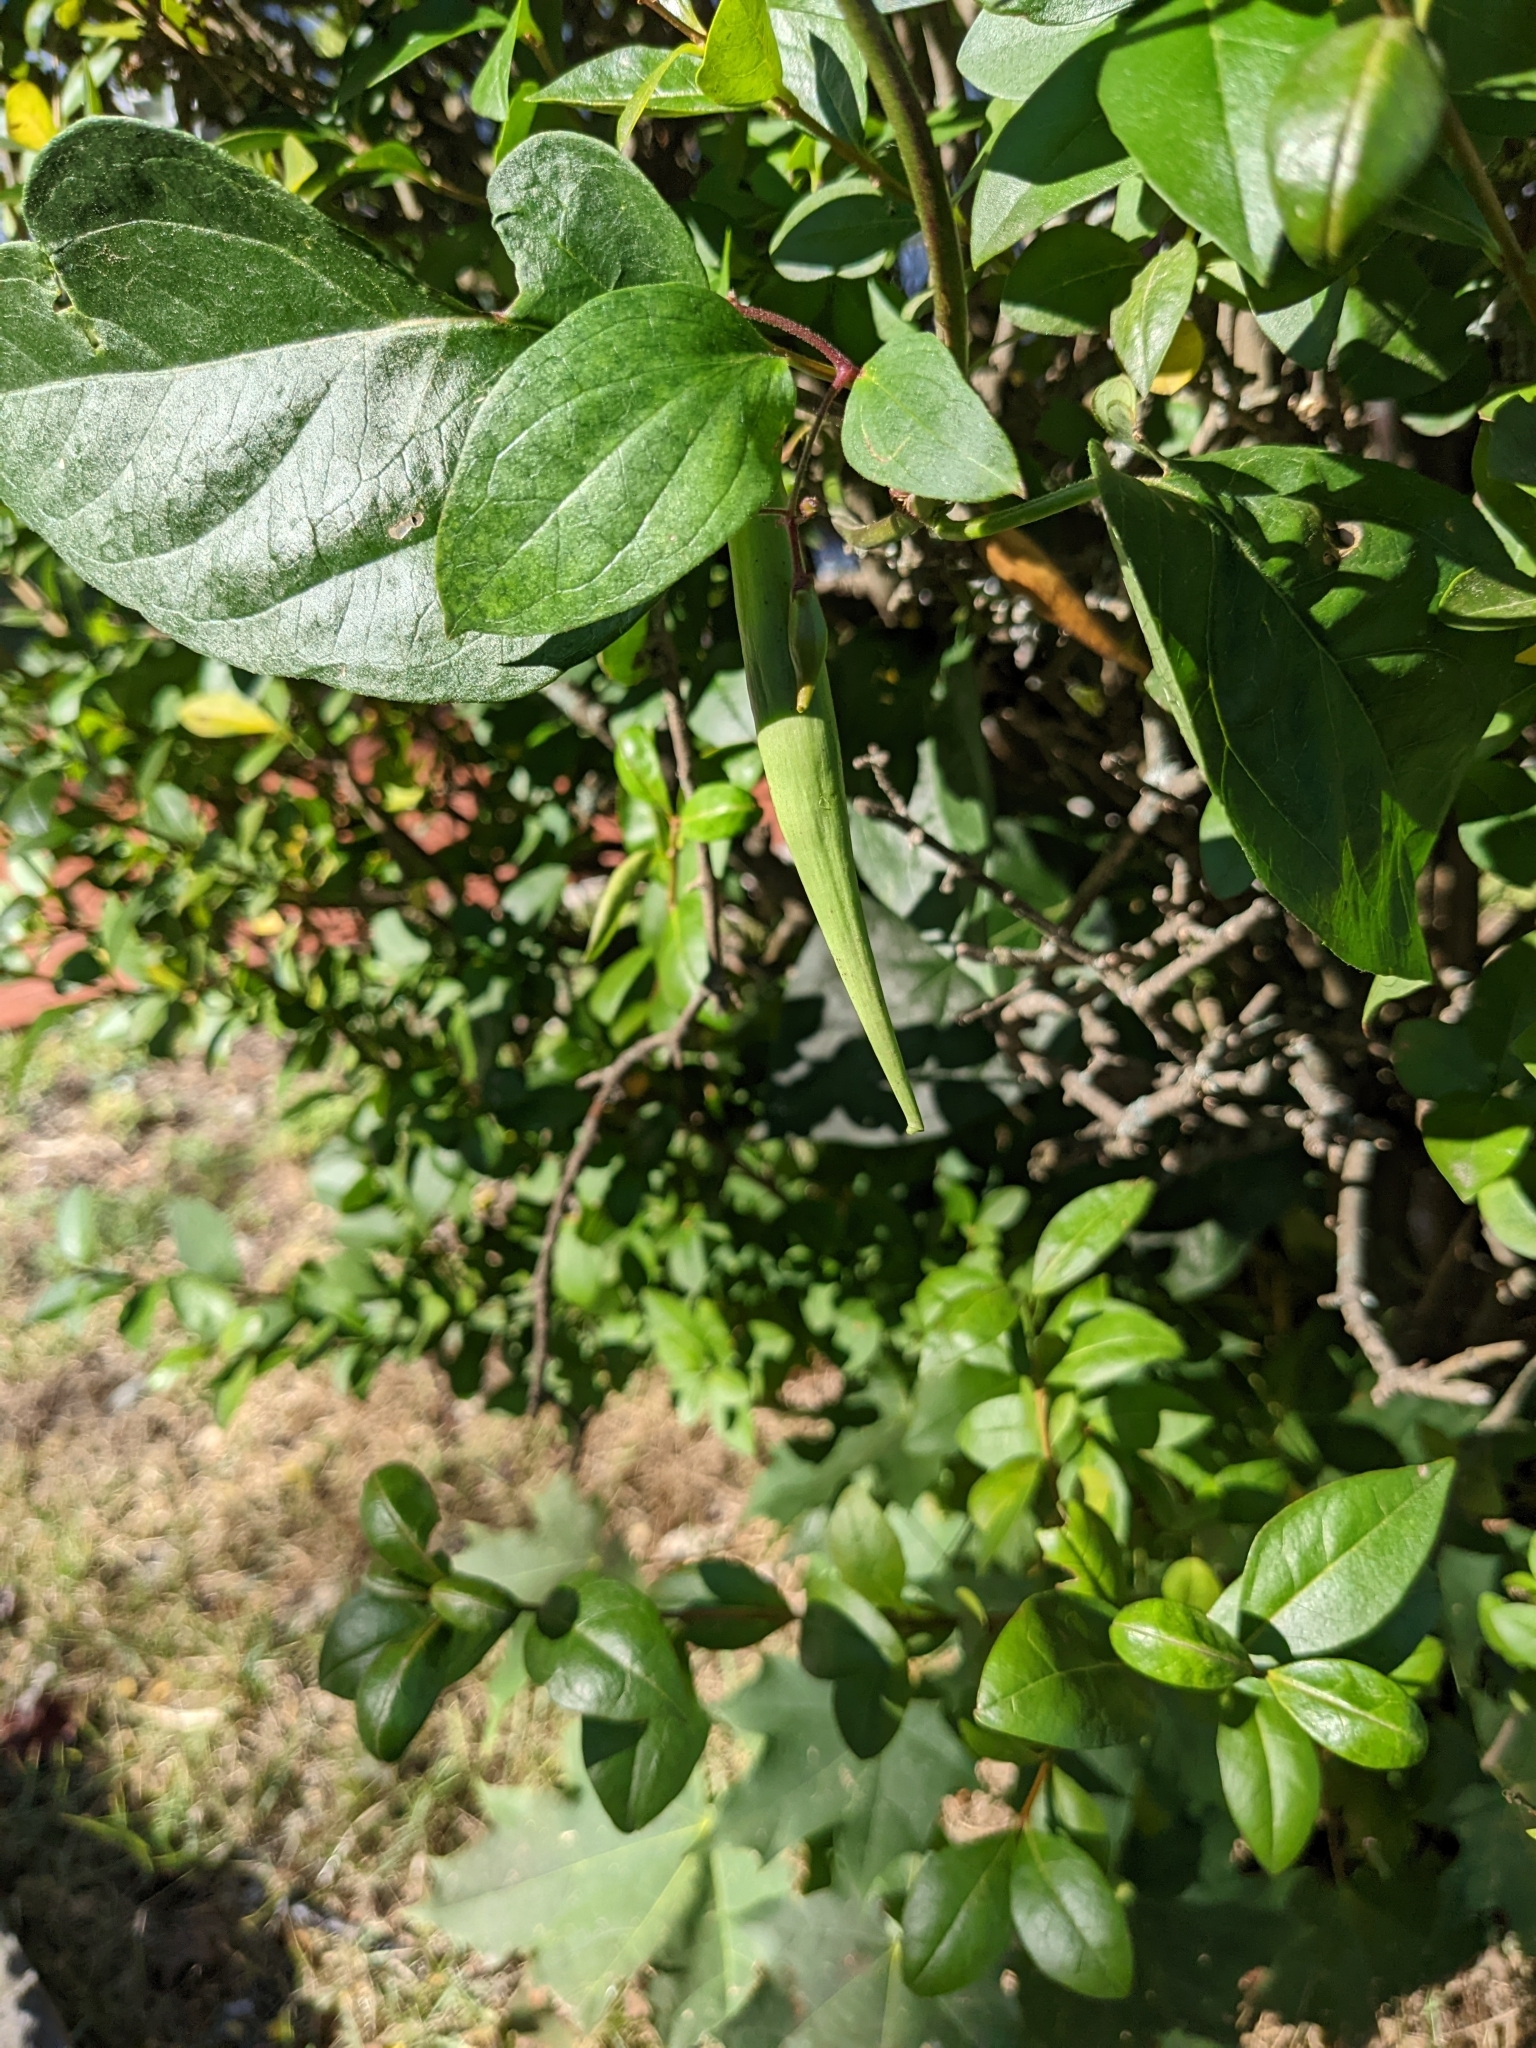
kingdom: Plantae
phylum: Tracheophyta
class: Magnoliopsida
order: Gentianales
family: Apocynaceae
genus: Vincetoxicum
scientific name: Vincetoxicum nigrum
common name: Black swallow-wort
